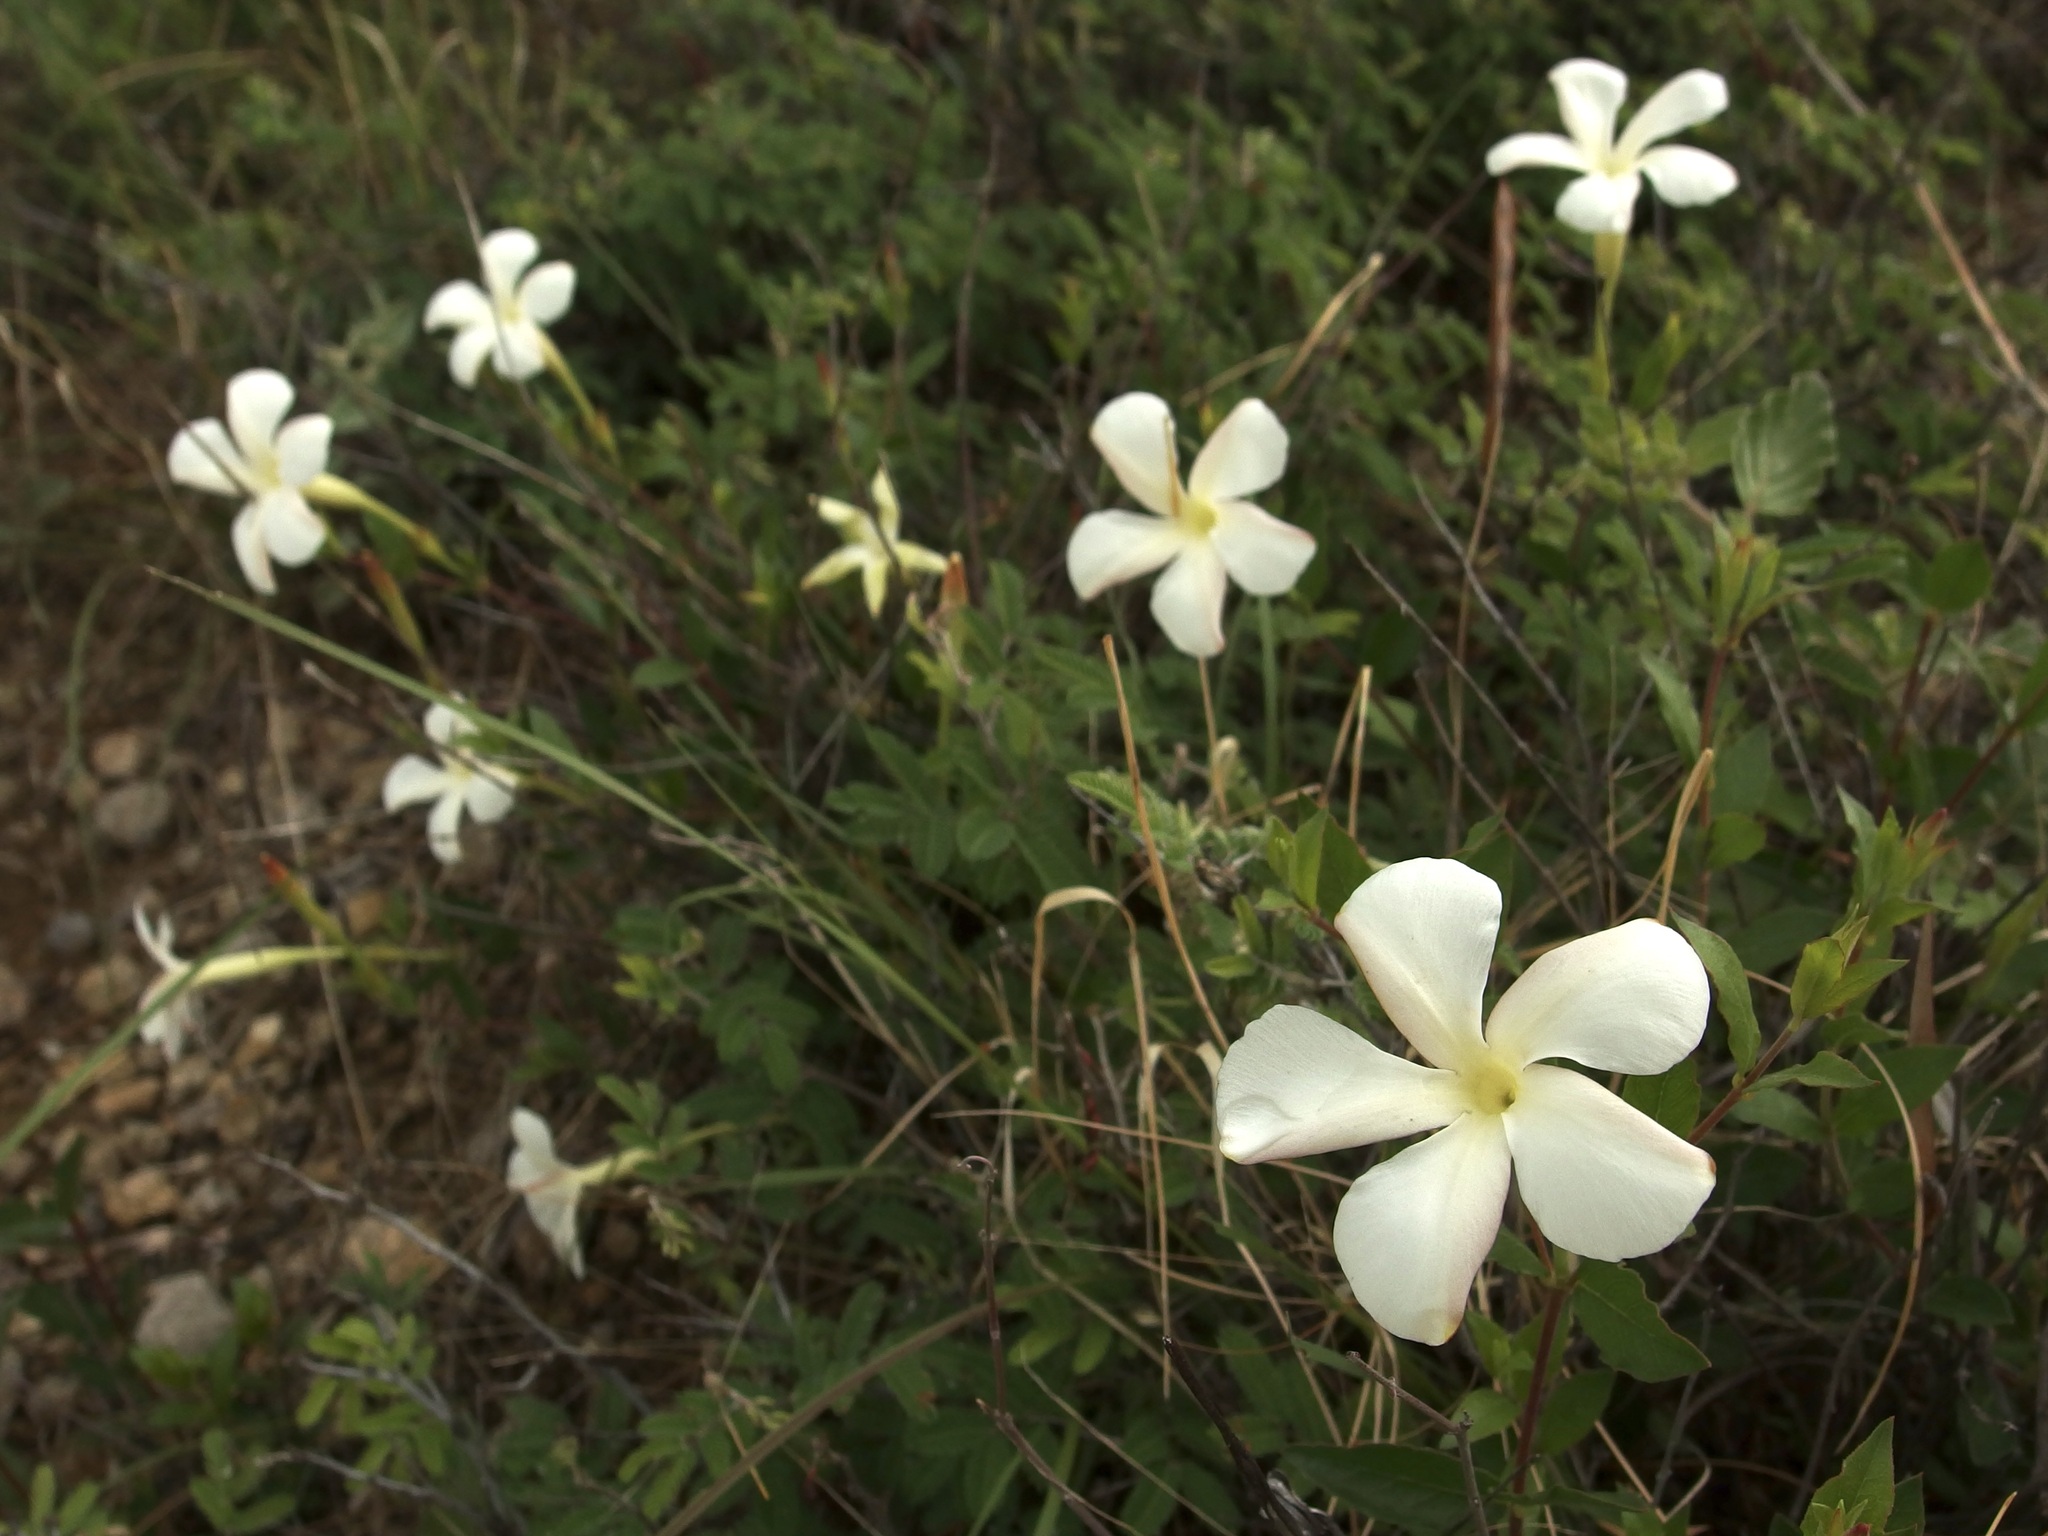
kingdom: Plantae
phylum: Tracheophyta
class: Magnoliopsida
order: Gentianales
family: Apocynaceae
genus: Mandevilla
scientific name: Mandevilla brachysiphon
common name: Huachuca mountain rocktrumpet
